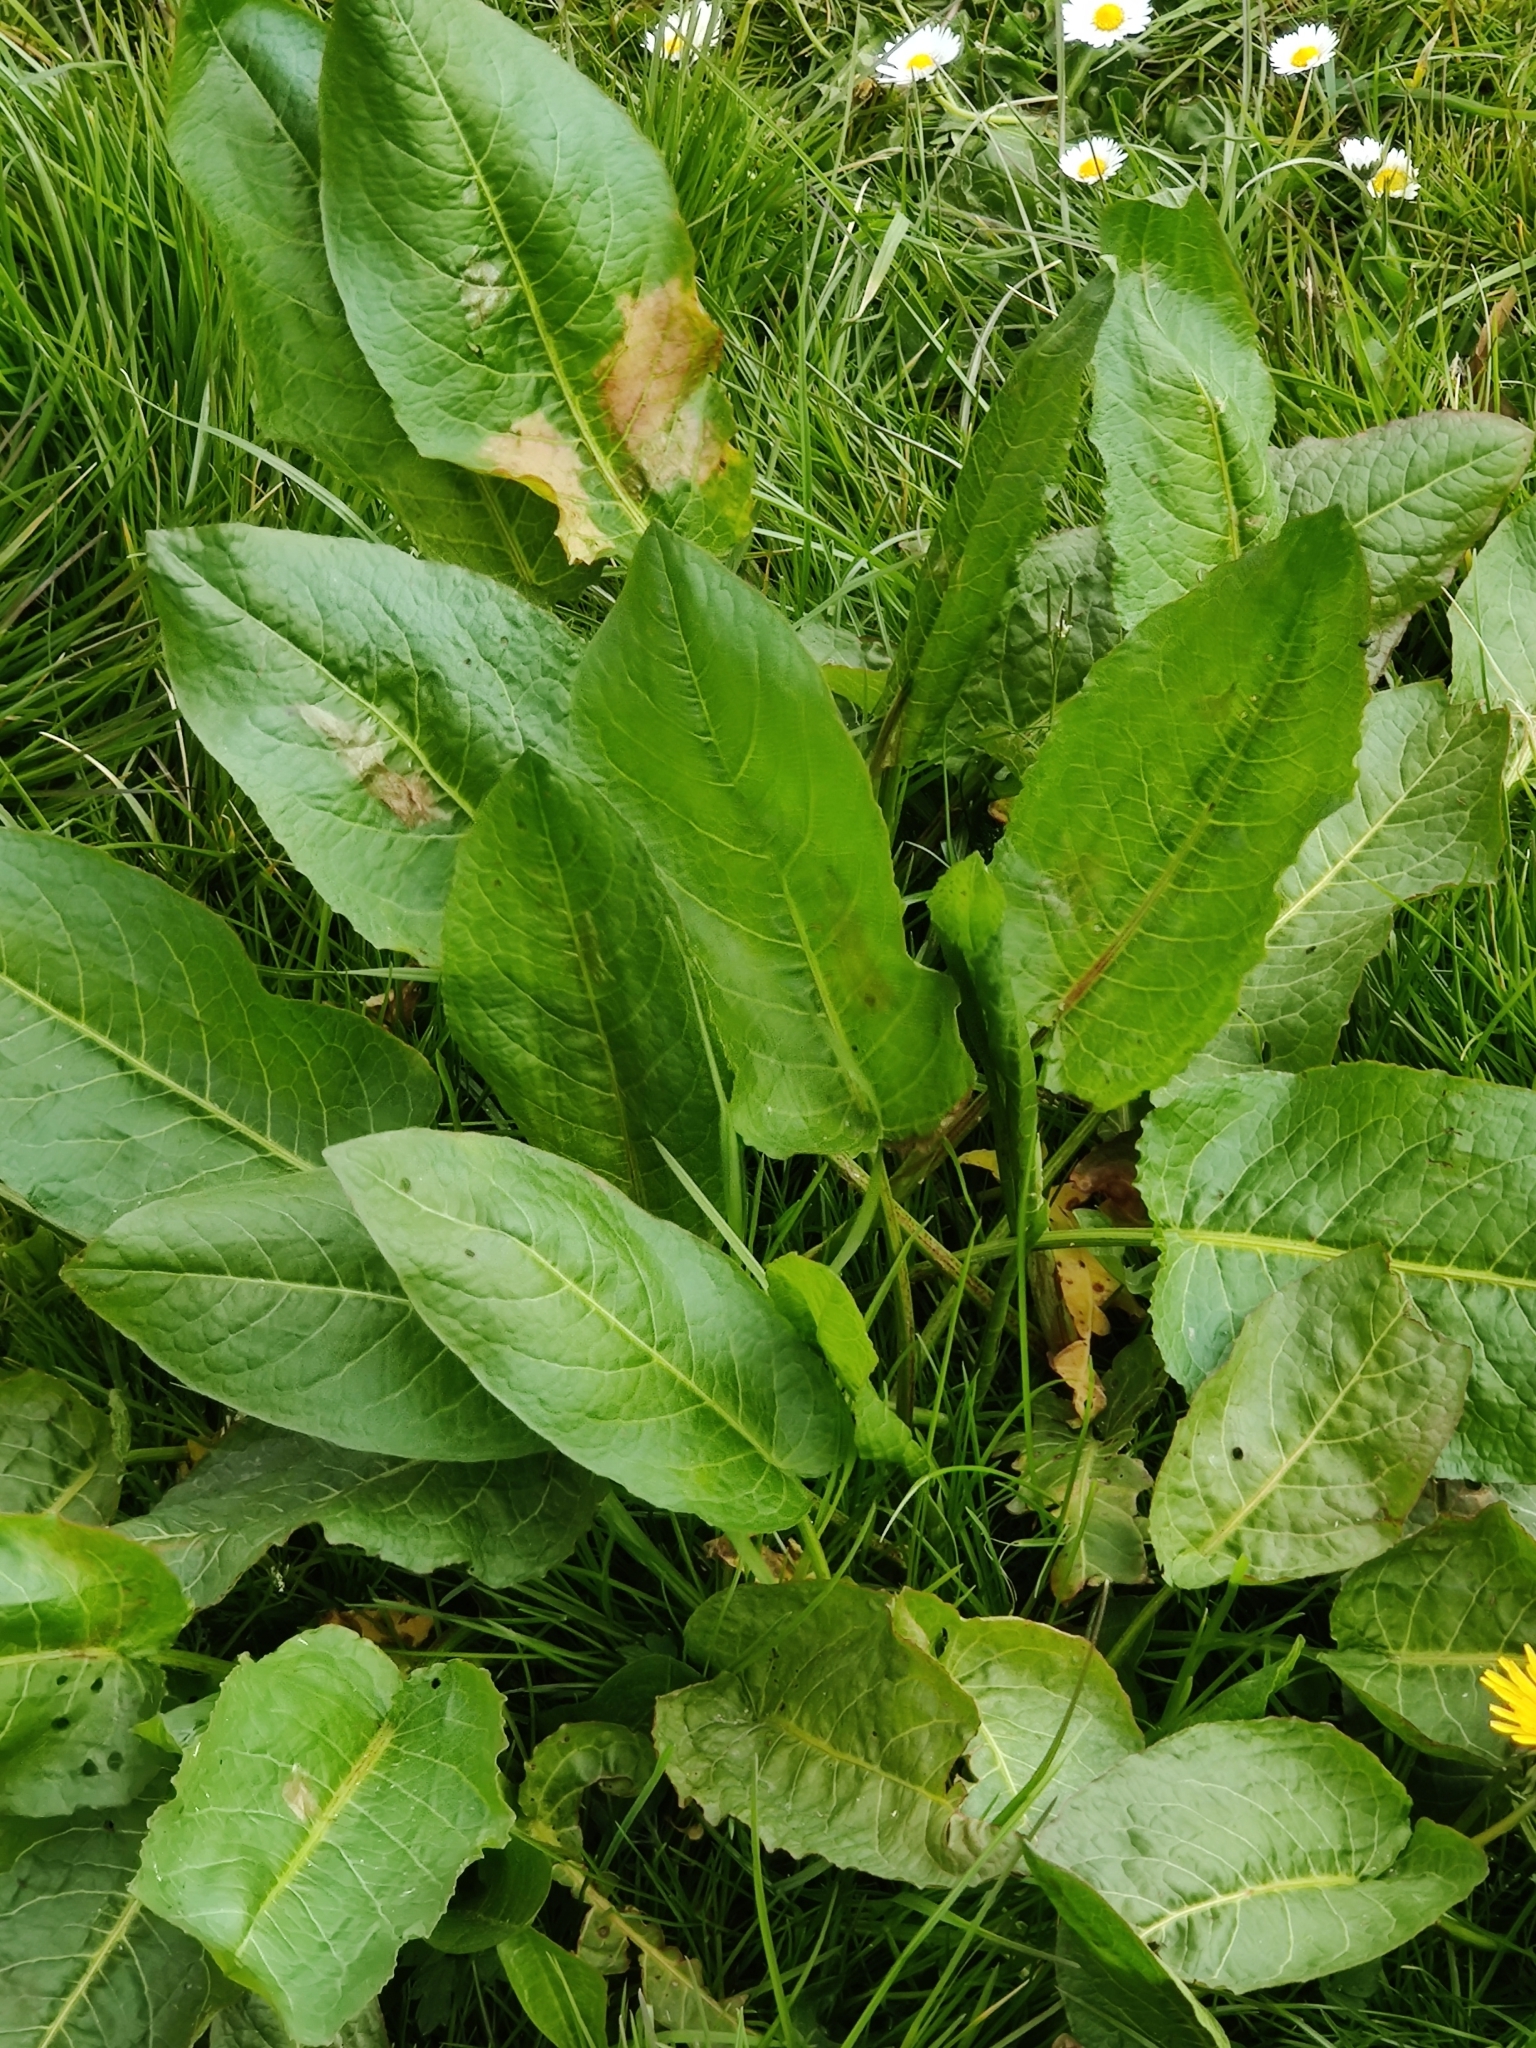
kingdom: Plantae
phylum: Tracheophyta
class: Magnoliopsida
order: Caryophyllales
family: Polygonaceae
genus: Rumex
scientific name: Rumex obtusifolius
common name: Bitter dock
